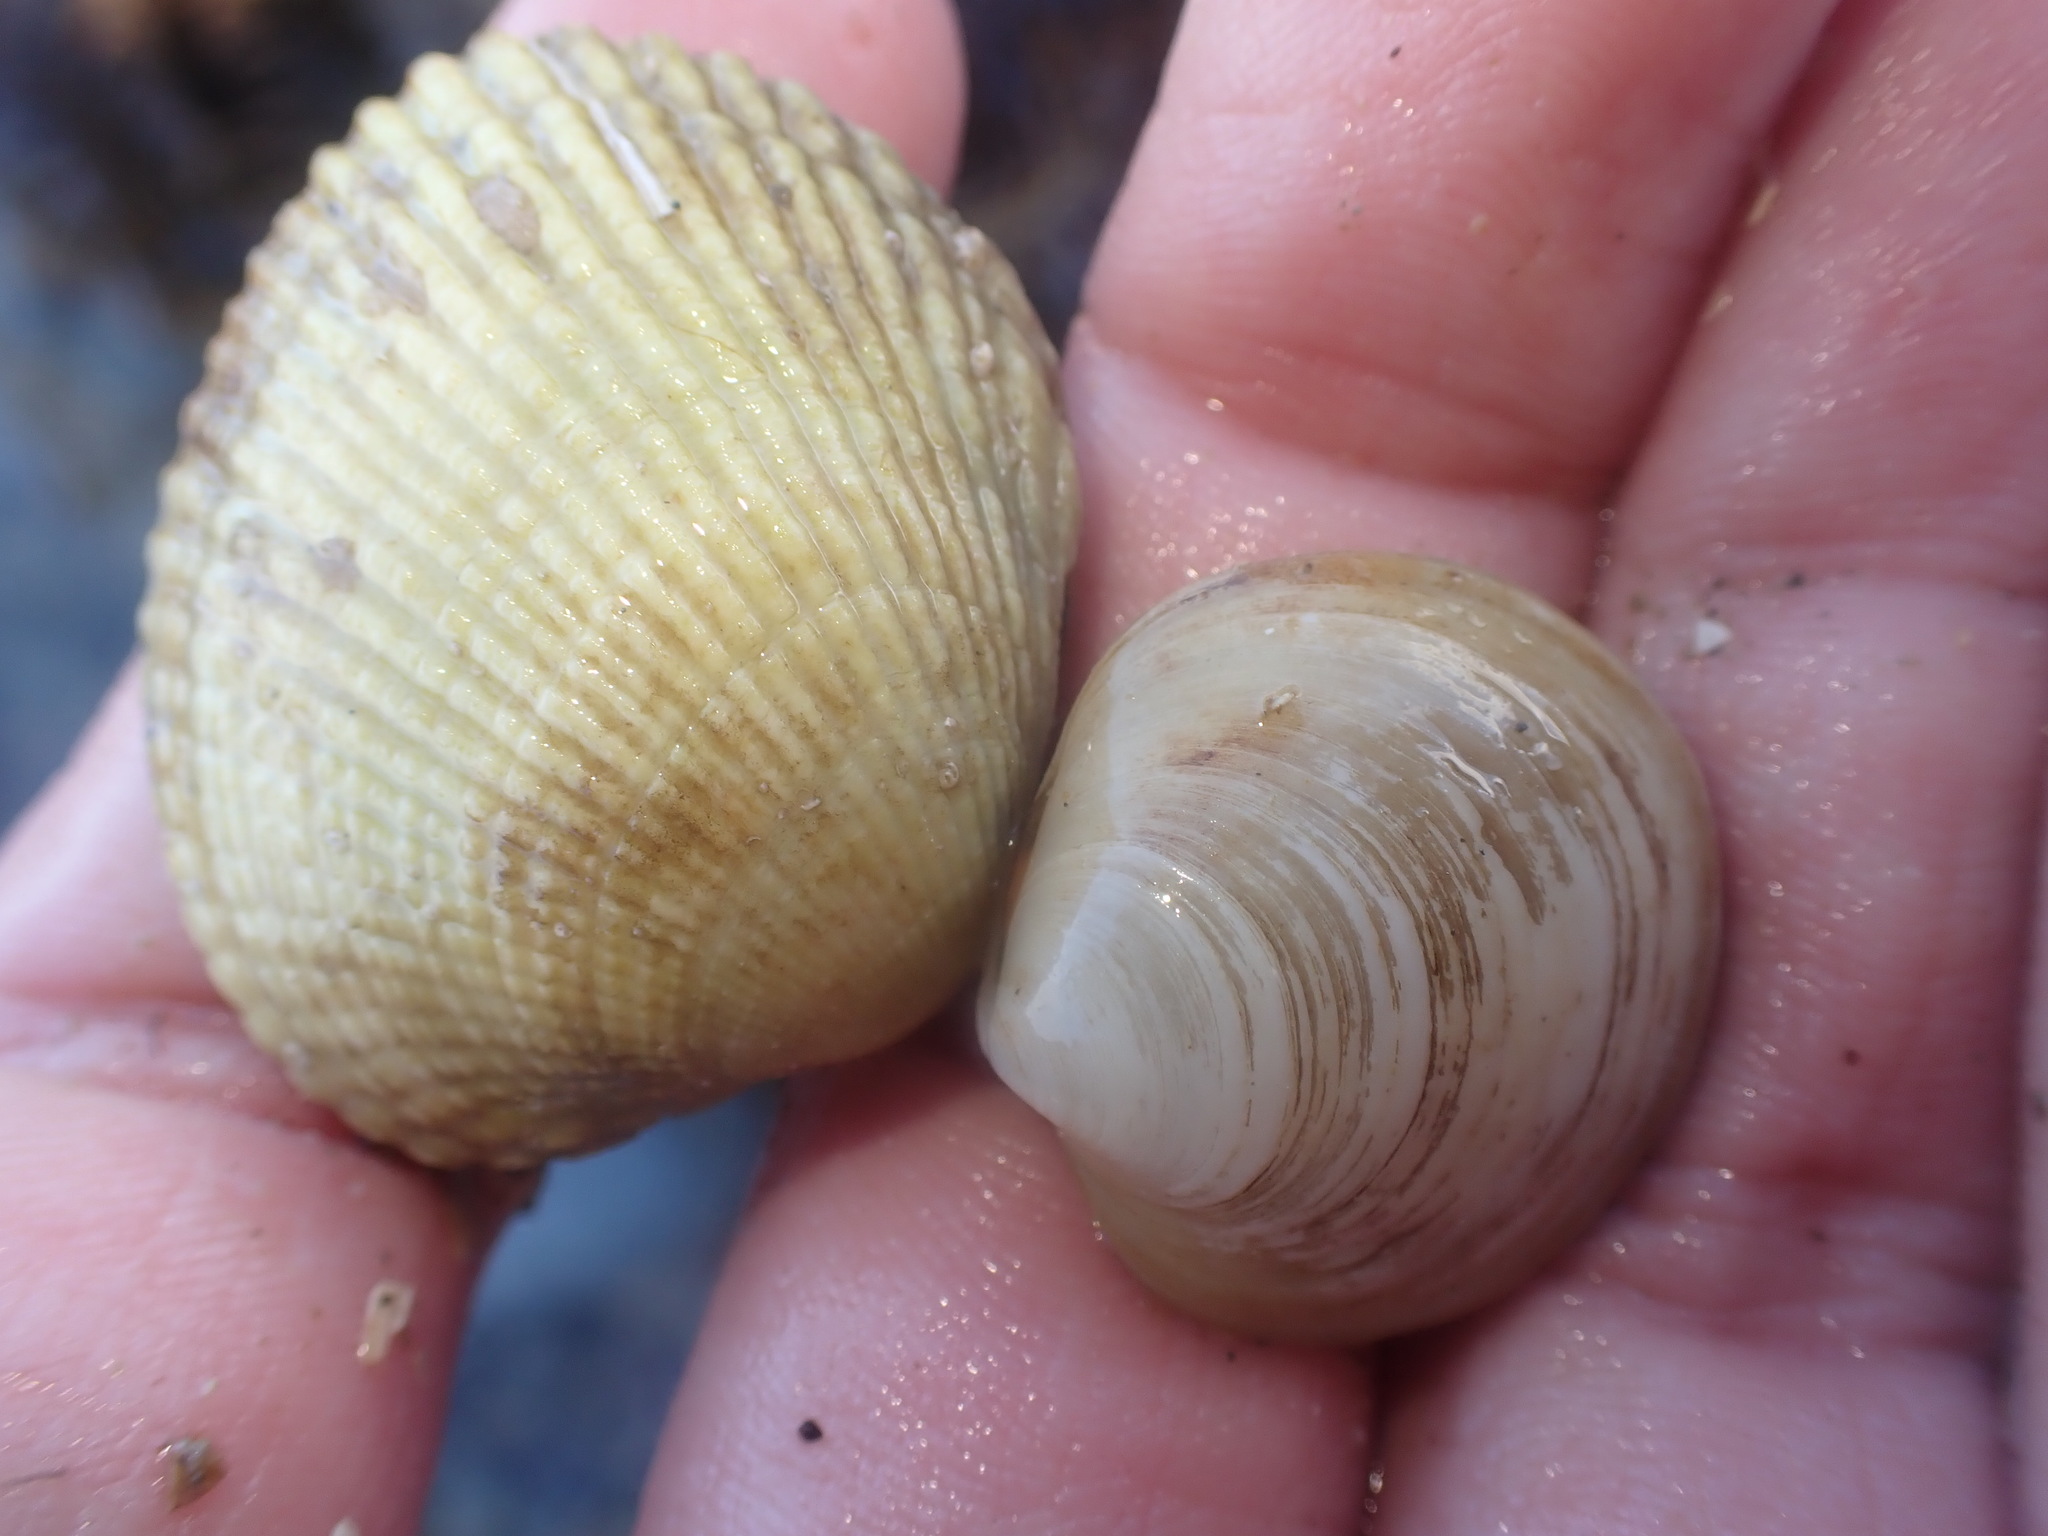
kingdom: Animalia
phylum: Mollusca
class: Bivalvia
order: Venerida
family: Ungulinidae
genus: Zemysia
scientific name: Zemysia zelandica
